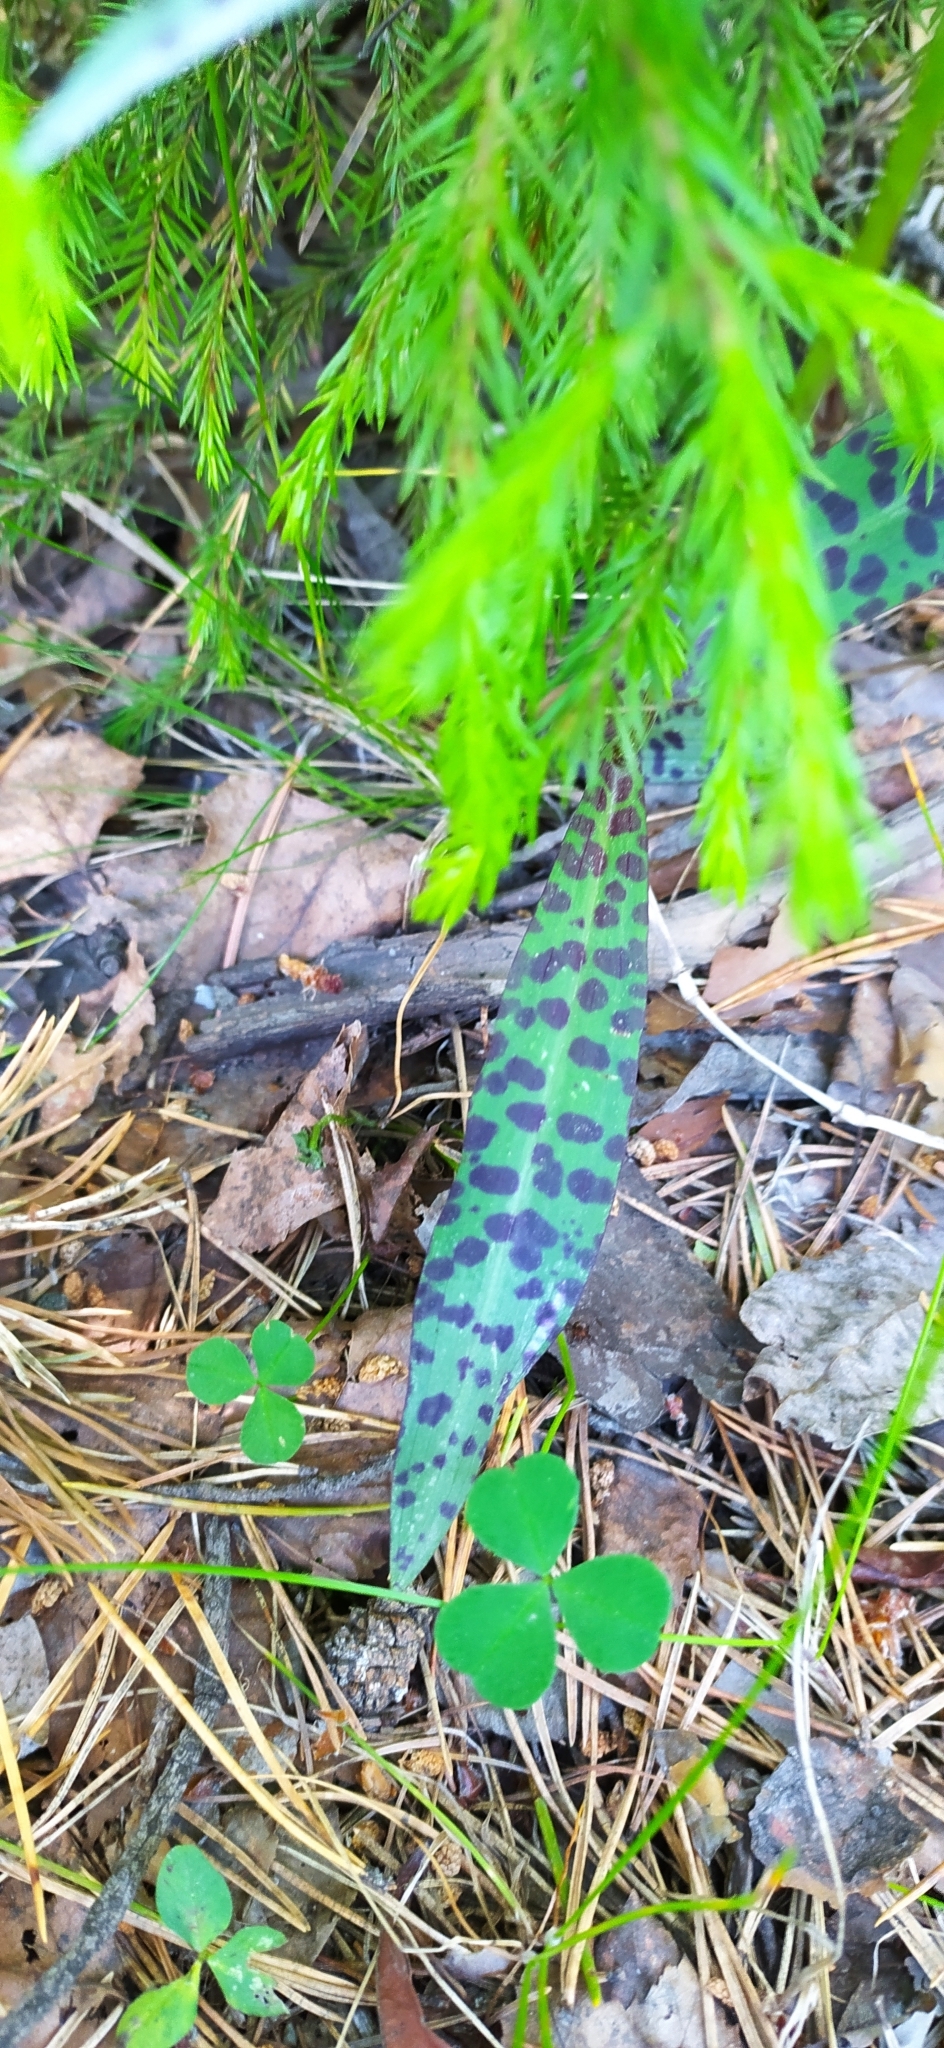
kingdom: Plantae
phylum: Tracheophyta
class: Liliopsida
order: Asparagales
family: Orchidaceae
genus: Dactylorhiza
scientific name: Dactylorhiza maculata
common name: Heath spotted-orchid
